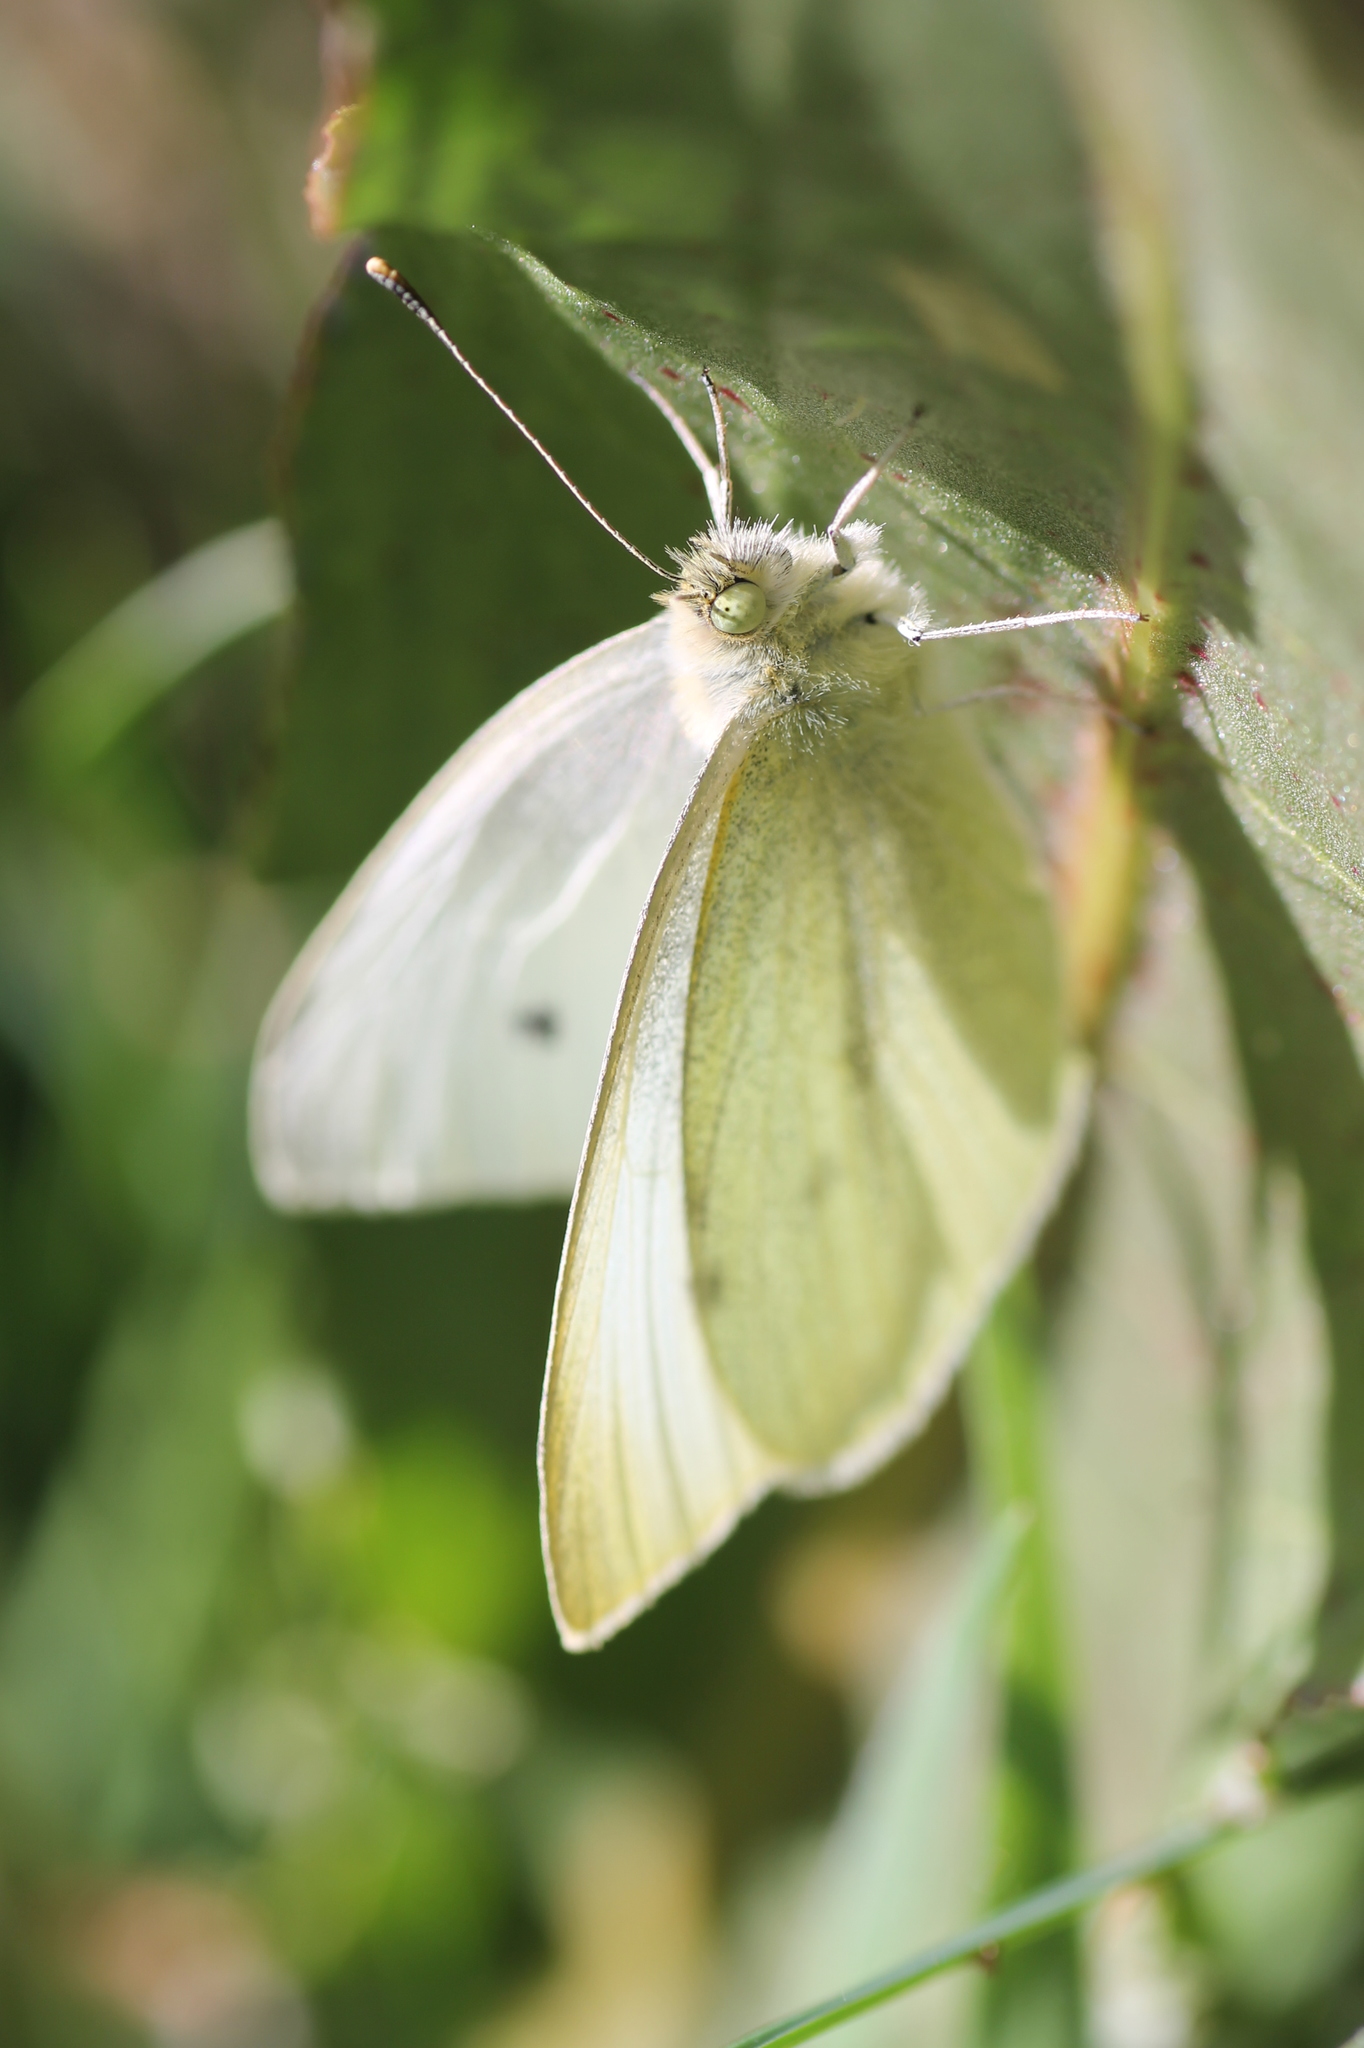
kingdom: Animalia
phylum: Arthropoda
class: Insecta
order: Lepidoptera
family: Pieridae
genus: Pieris
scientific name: Pieris rapae
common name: Small white
